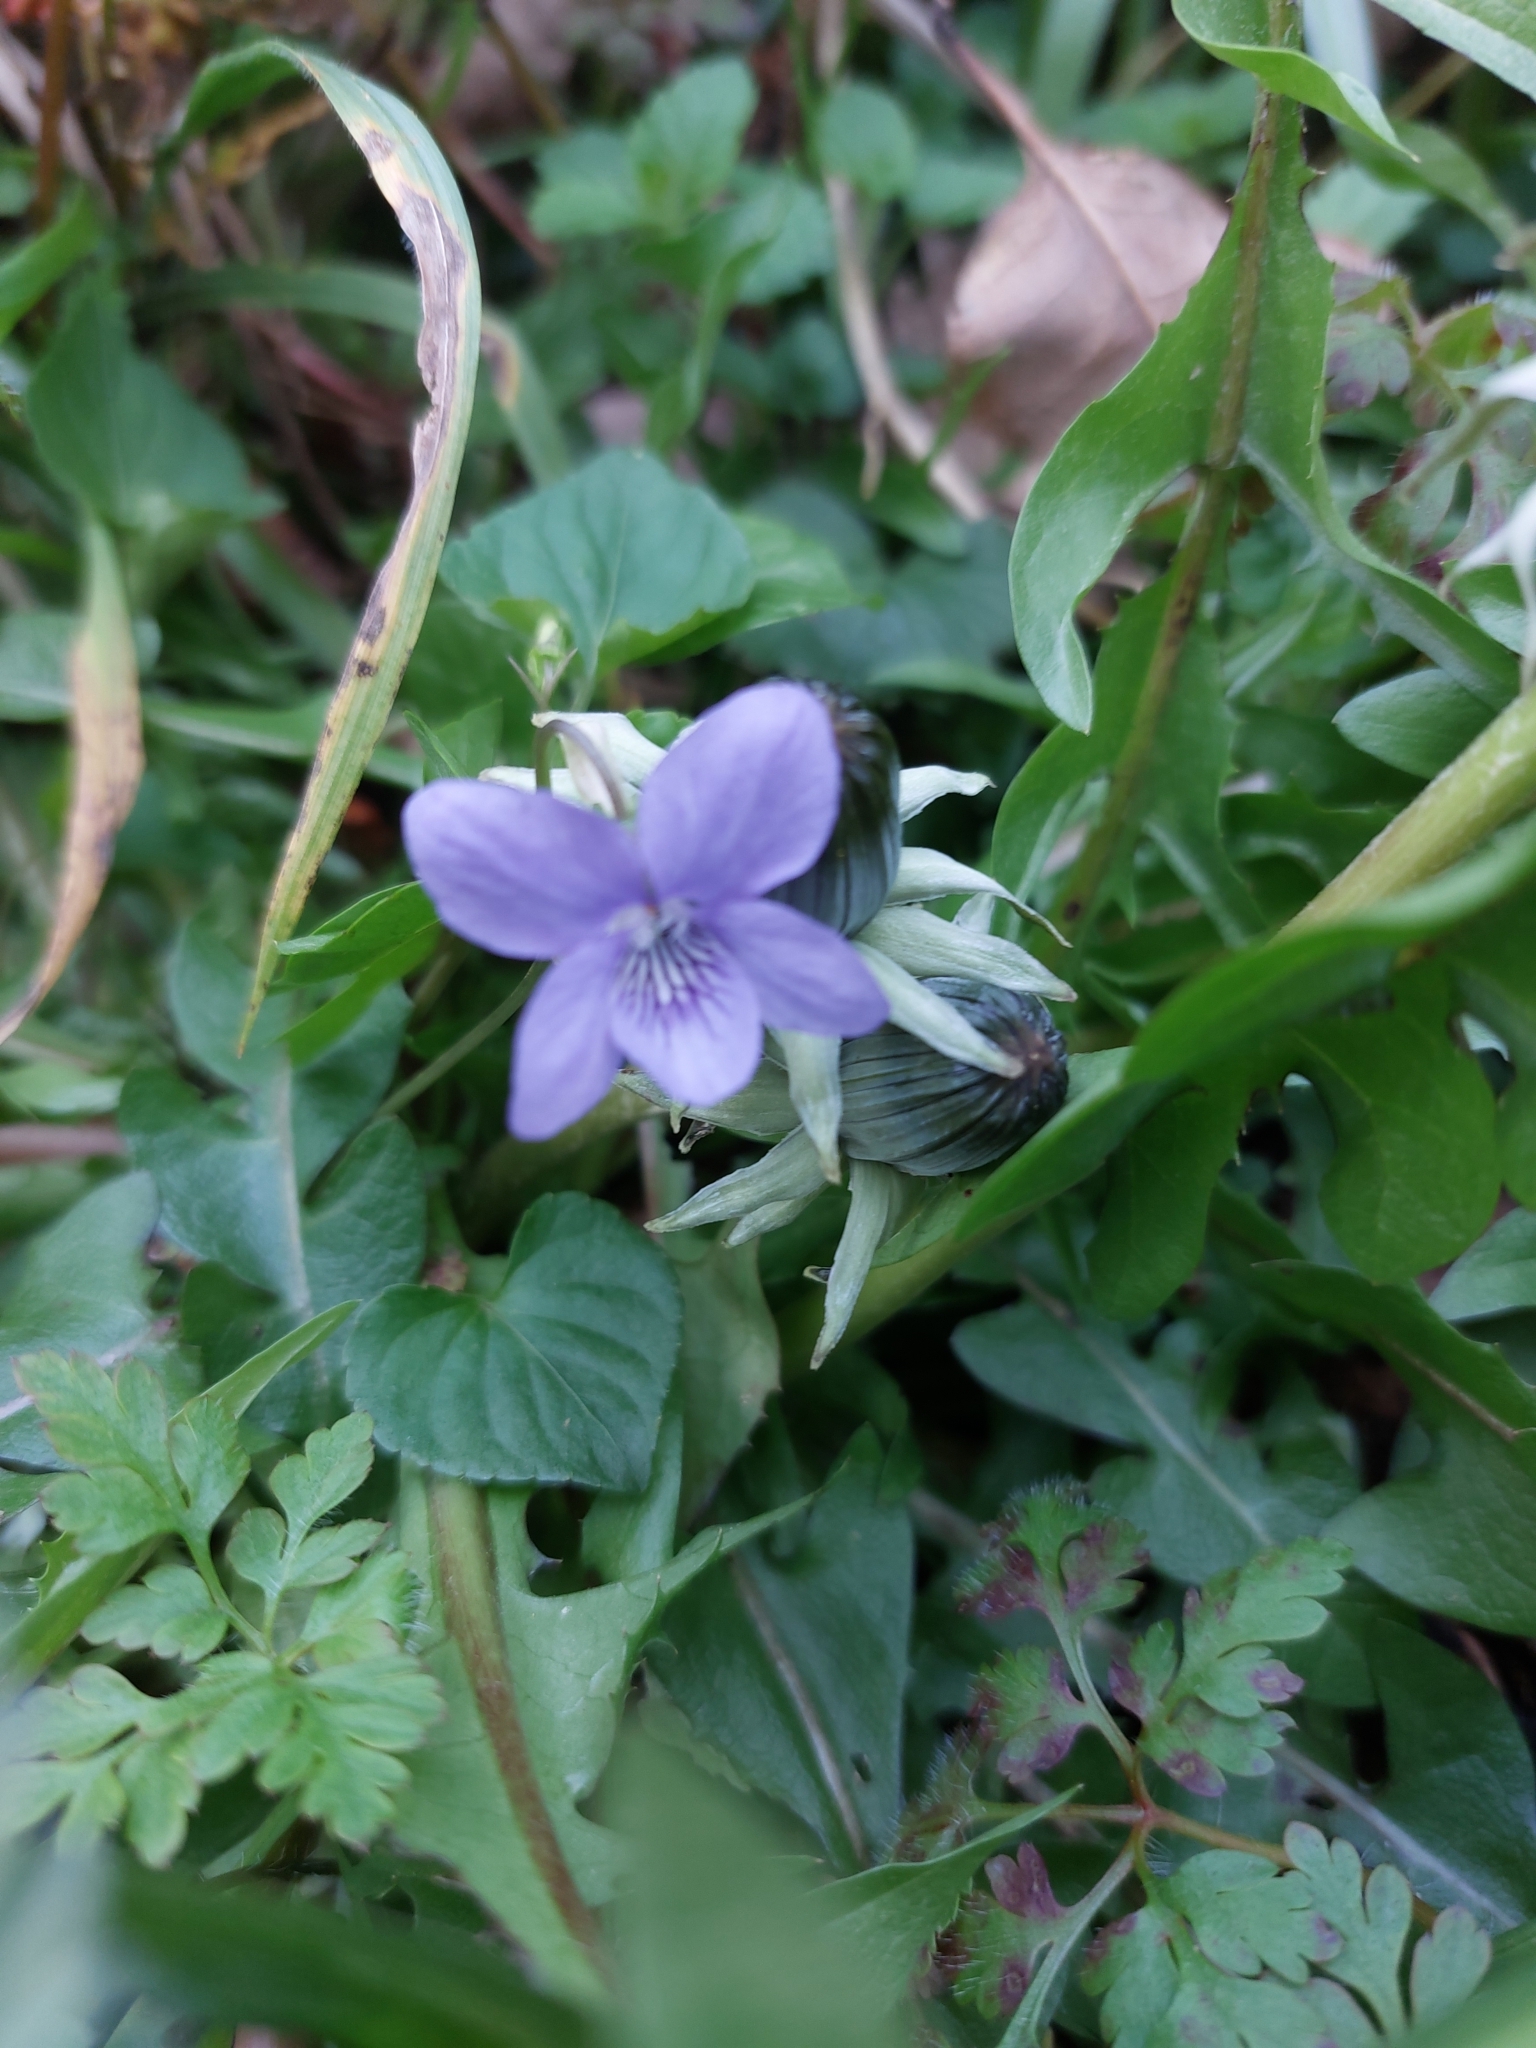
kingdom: Plantae
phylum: Tracheophyta
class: Magnoliopsida
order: Malpighiales
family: Violaceae
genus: Viola
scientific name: Viola riviniana
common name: Common dog-violet
